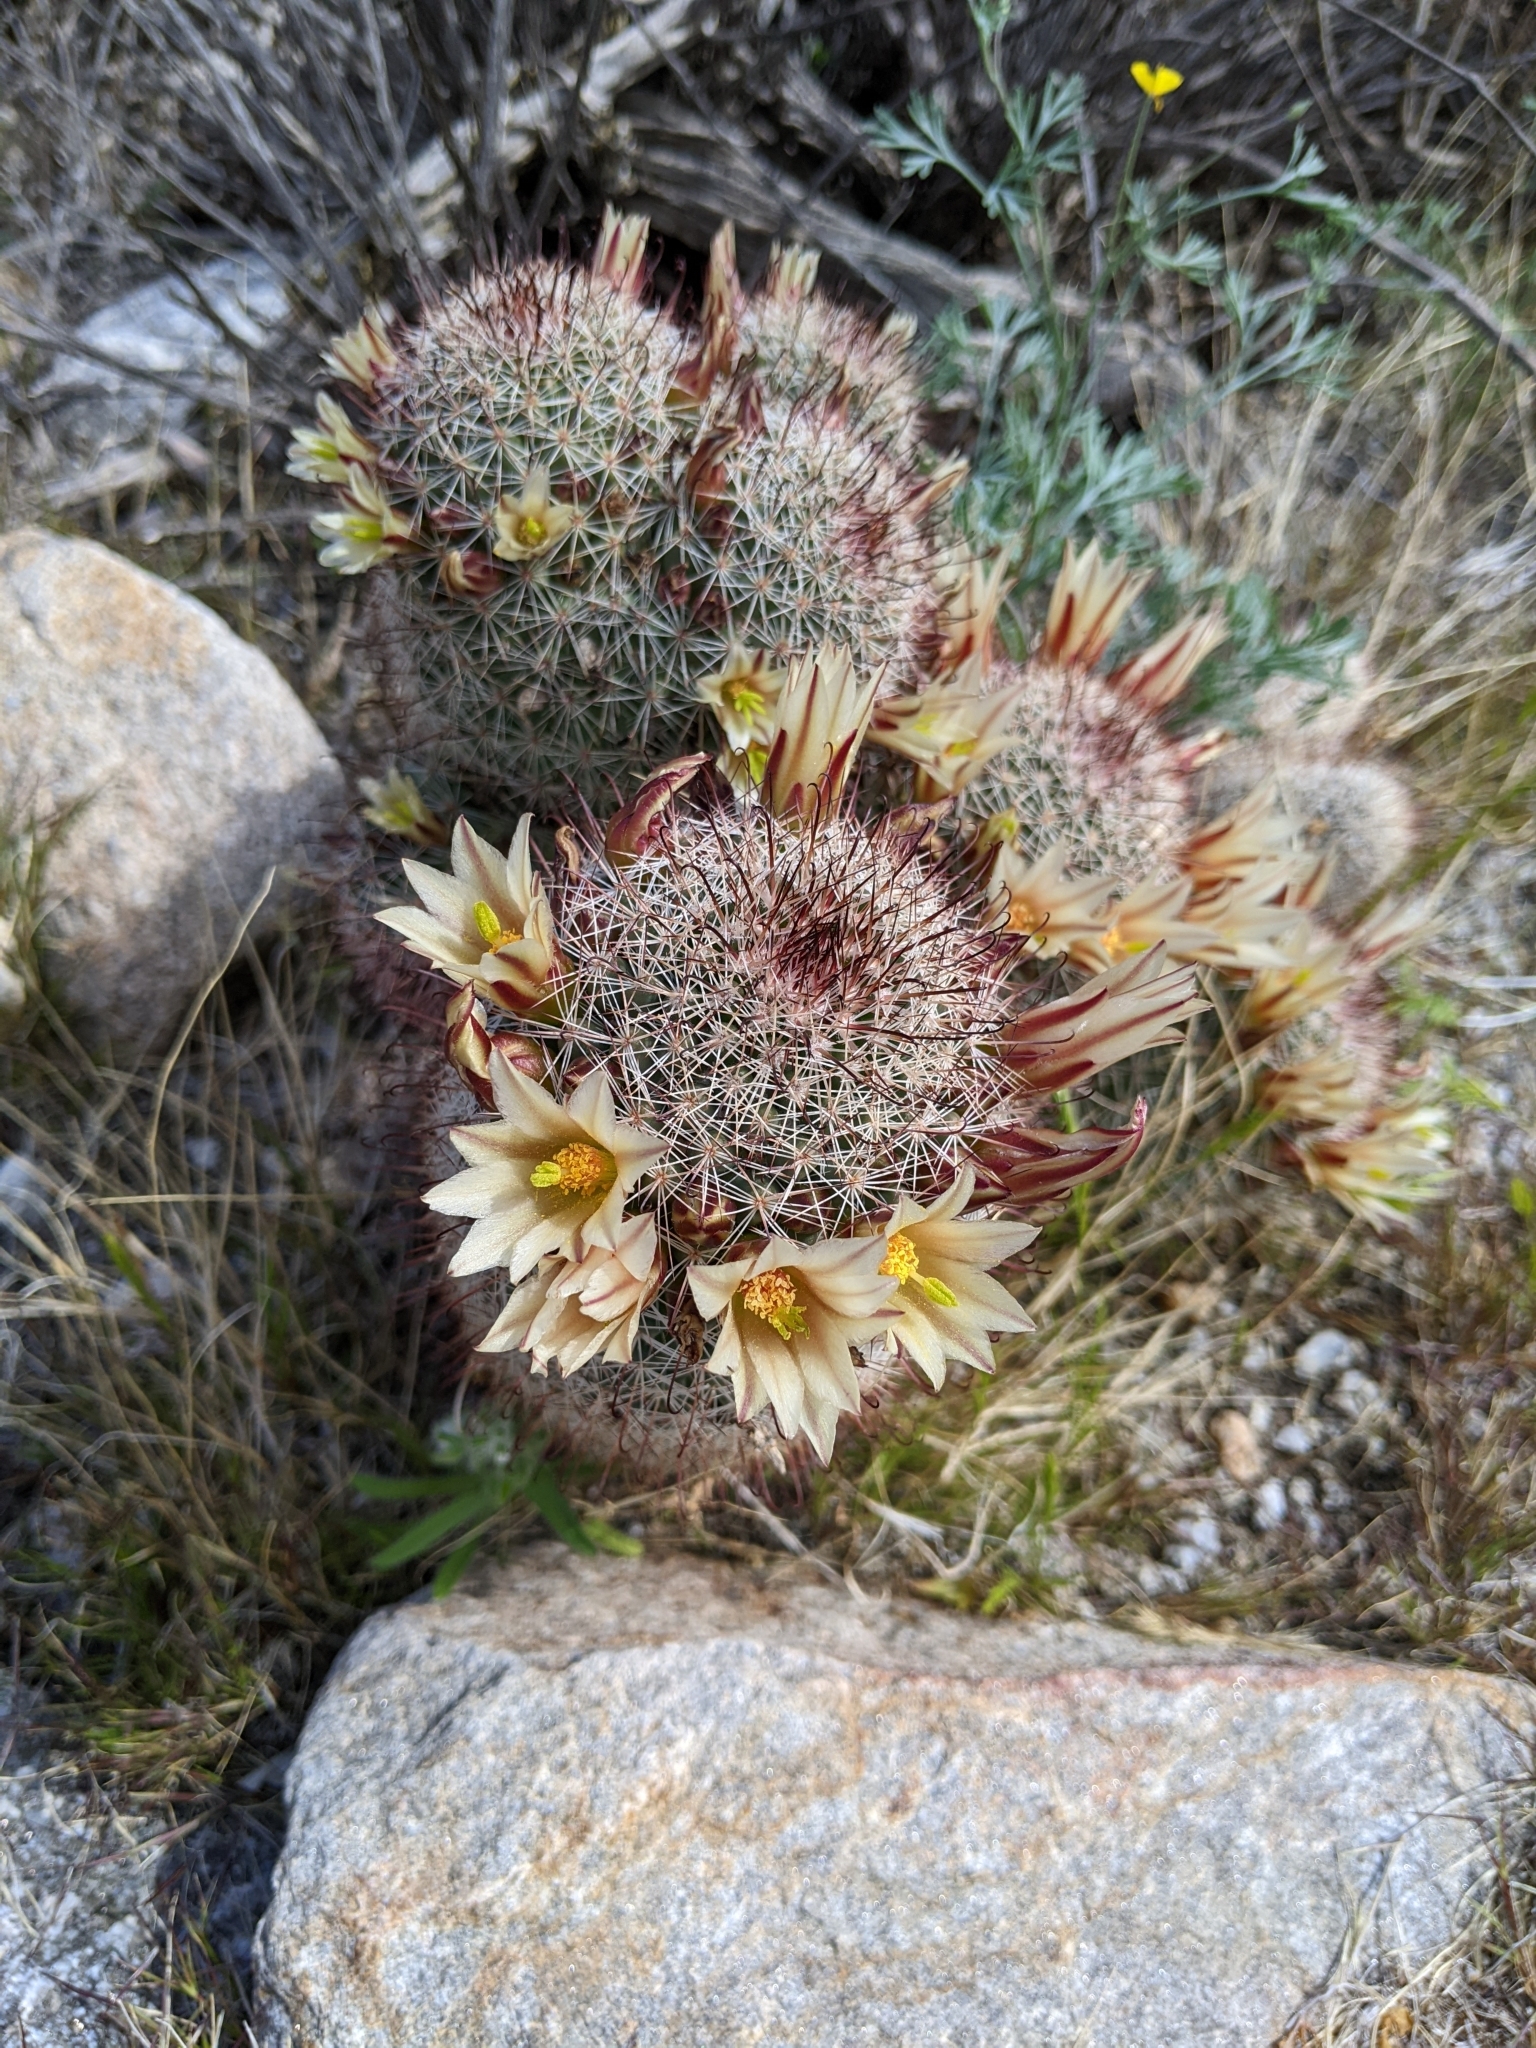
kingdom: Plantae
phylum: Tracheophyta
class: Magnoliopsida
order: Caryophyllales
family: Cactaceae
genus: Cochemiea
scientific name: Cochemiea dioica
